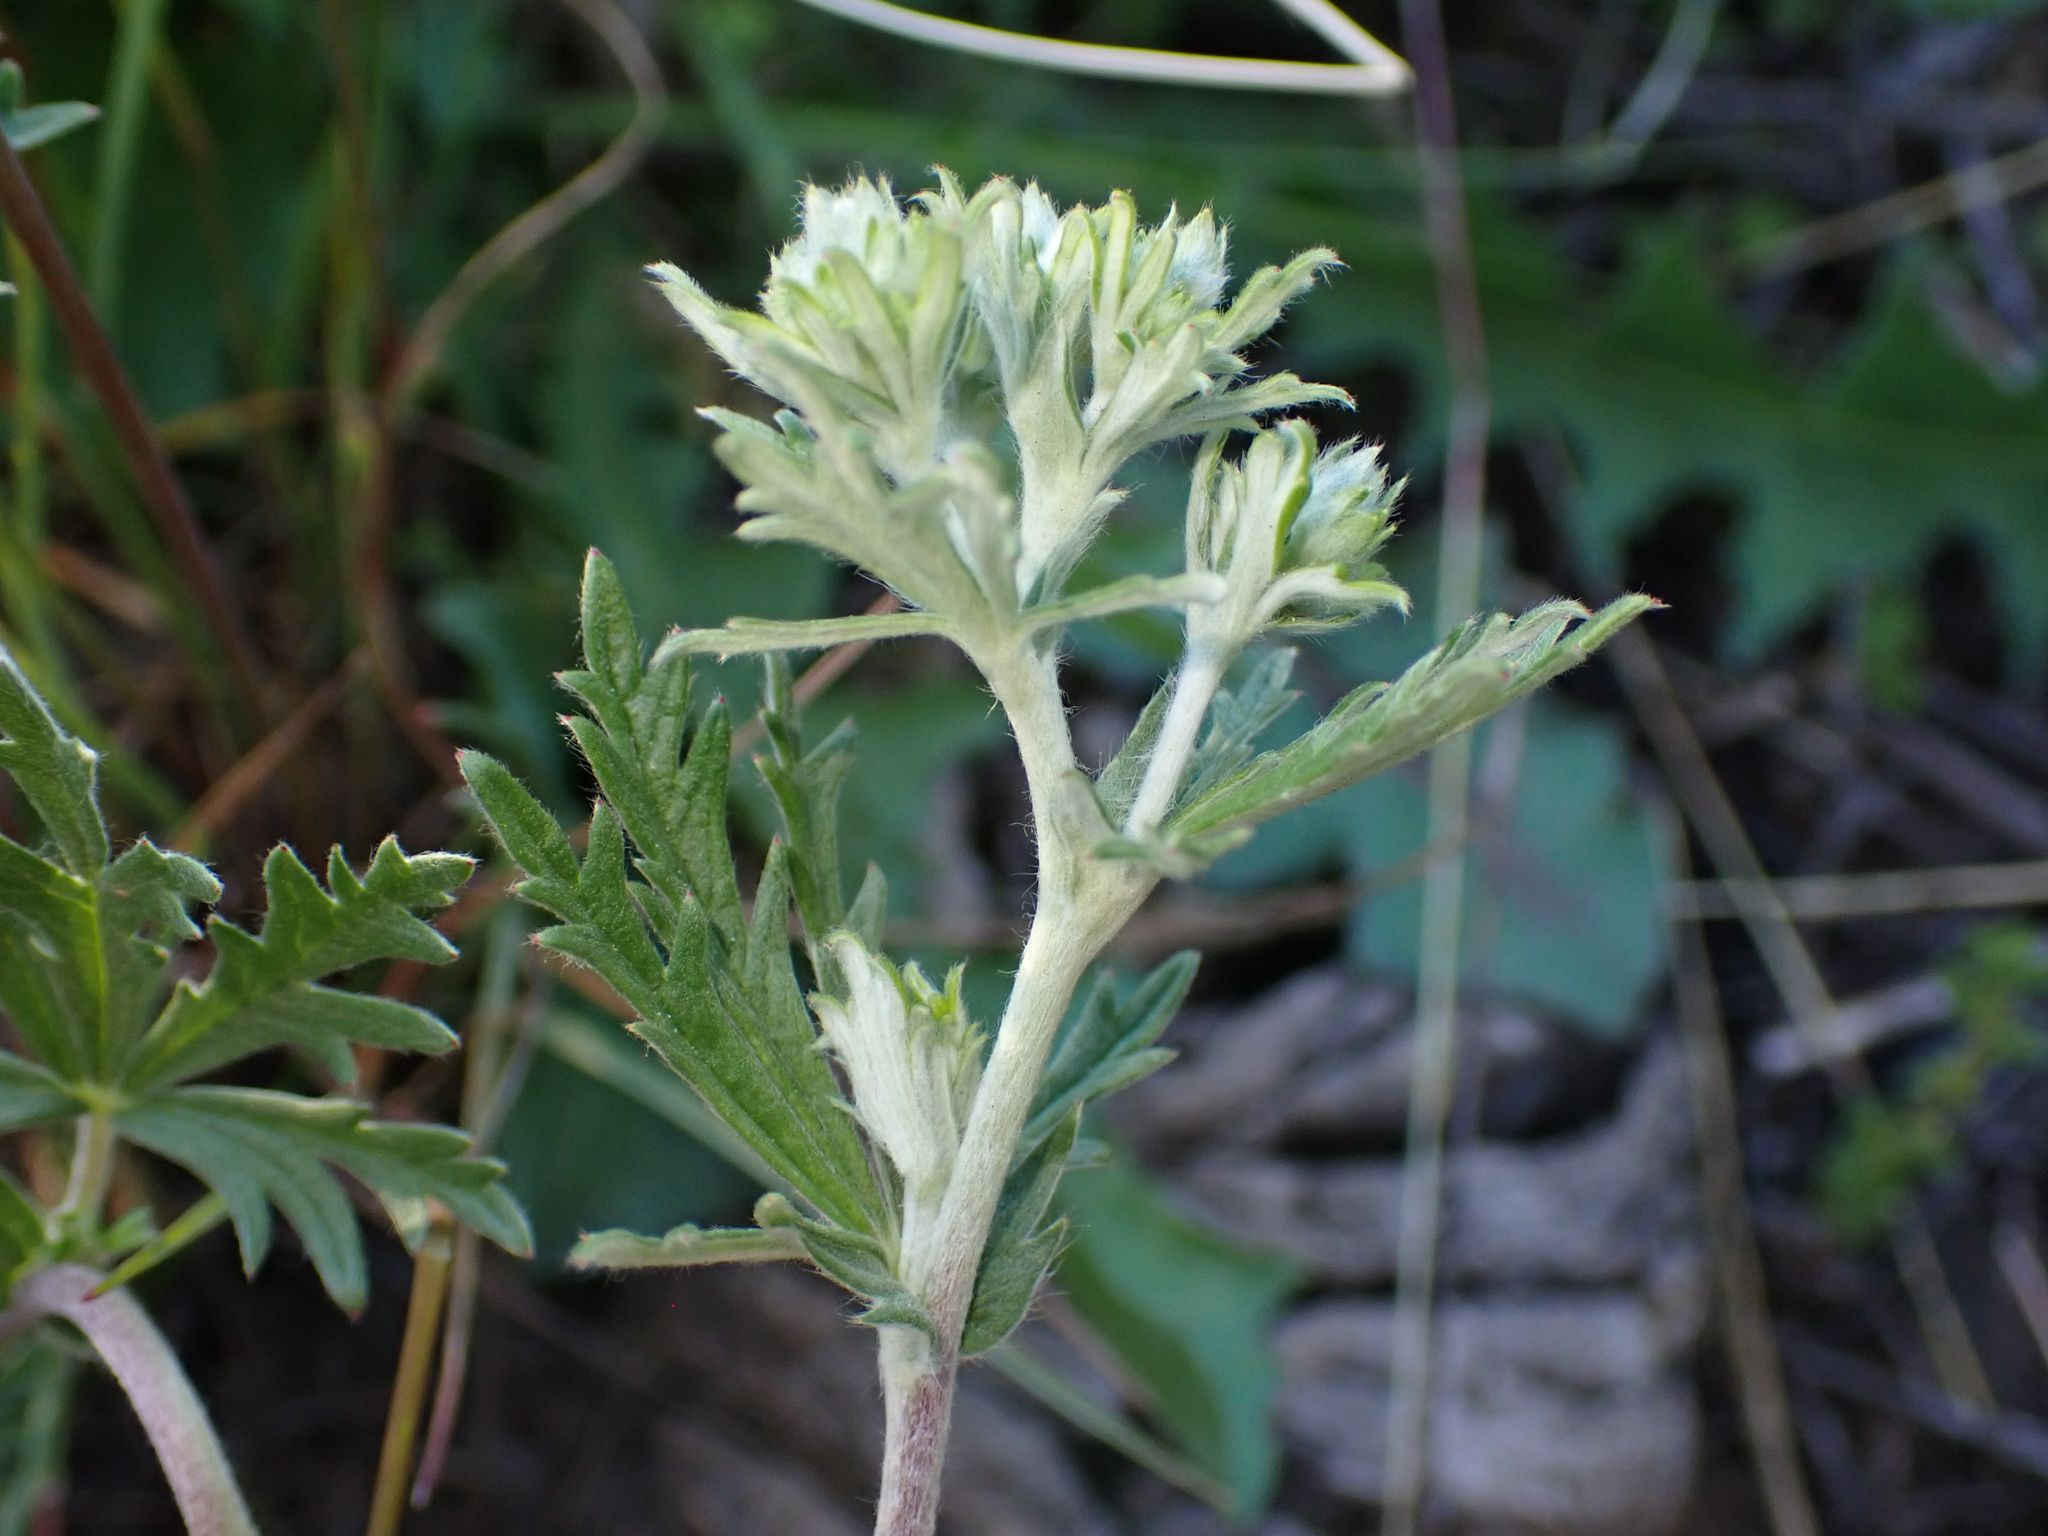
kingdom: Plantae
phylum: Tracheophyta
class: Magnoliopsida
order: Rosales
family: Rosaceae
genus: Potentilla
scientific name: Potentilla argentea
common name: Hoary cinquefoil
